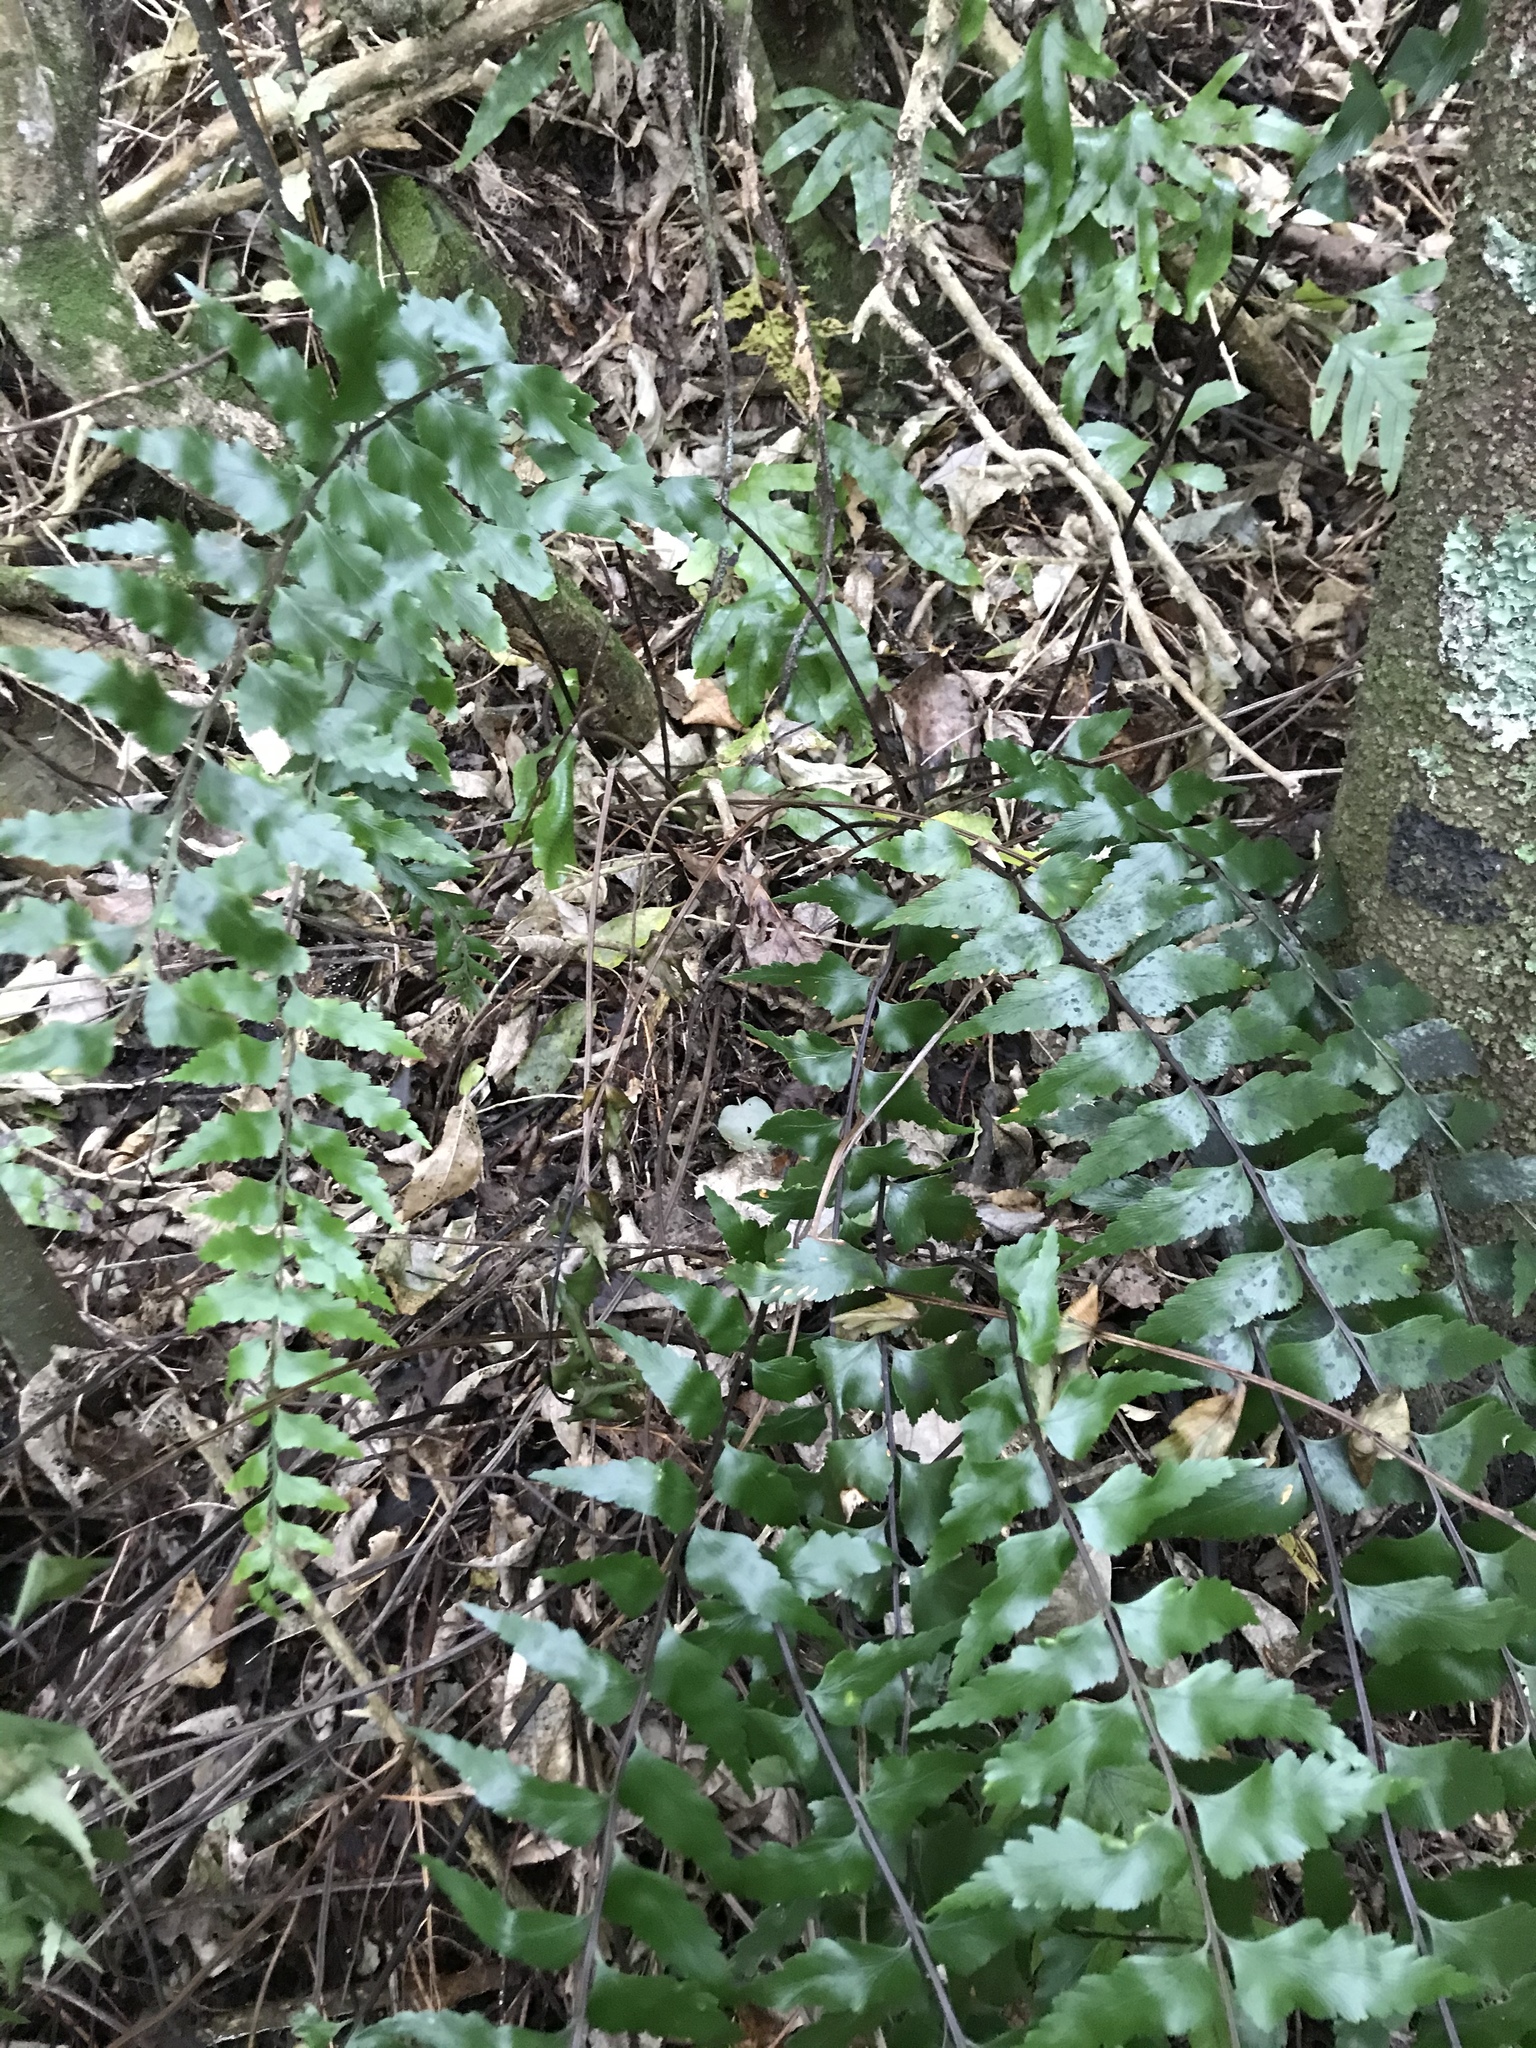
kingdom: Plantae
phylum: Tracheophyta
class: Polypodiopsida
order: Polypodiales
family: Aspleniaceae
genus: Asplenium
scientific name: Asplenium polyodon
